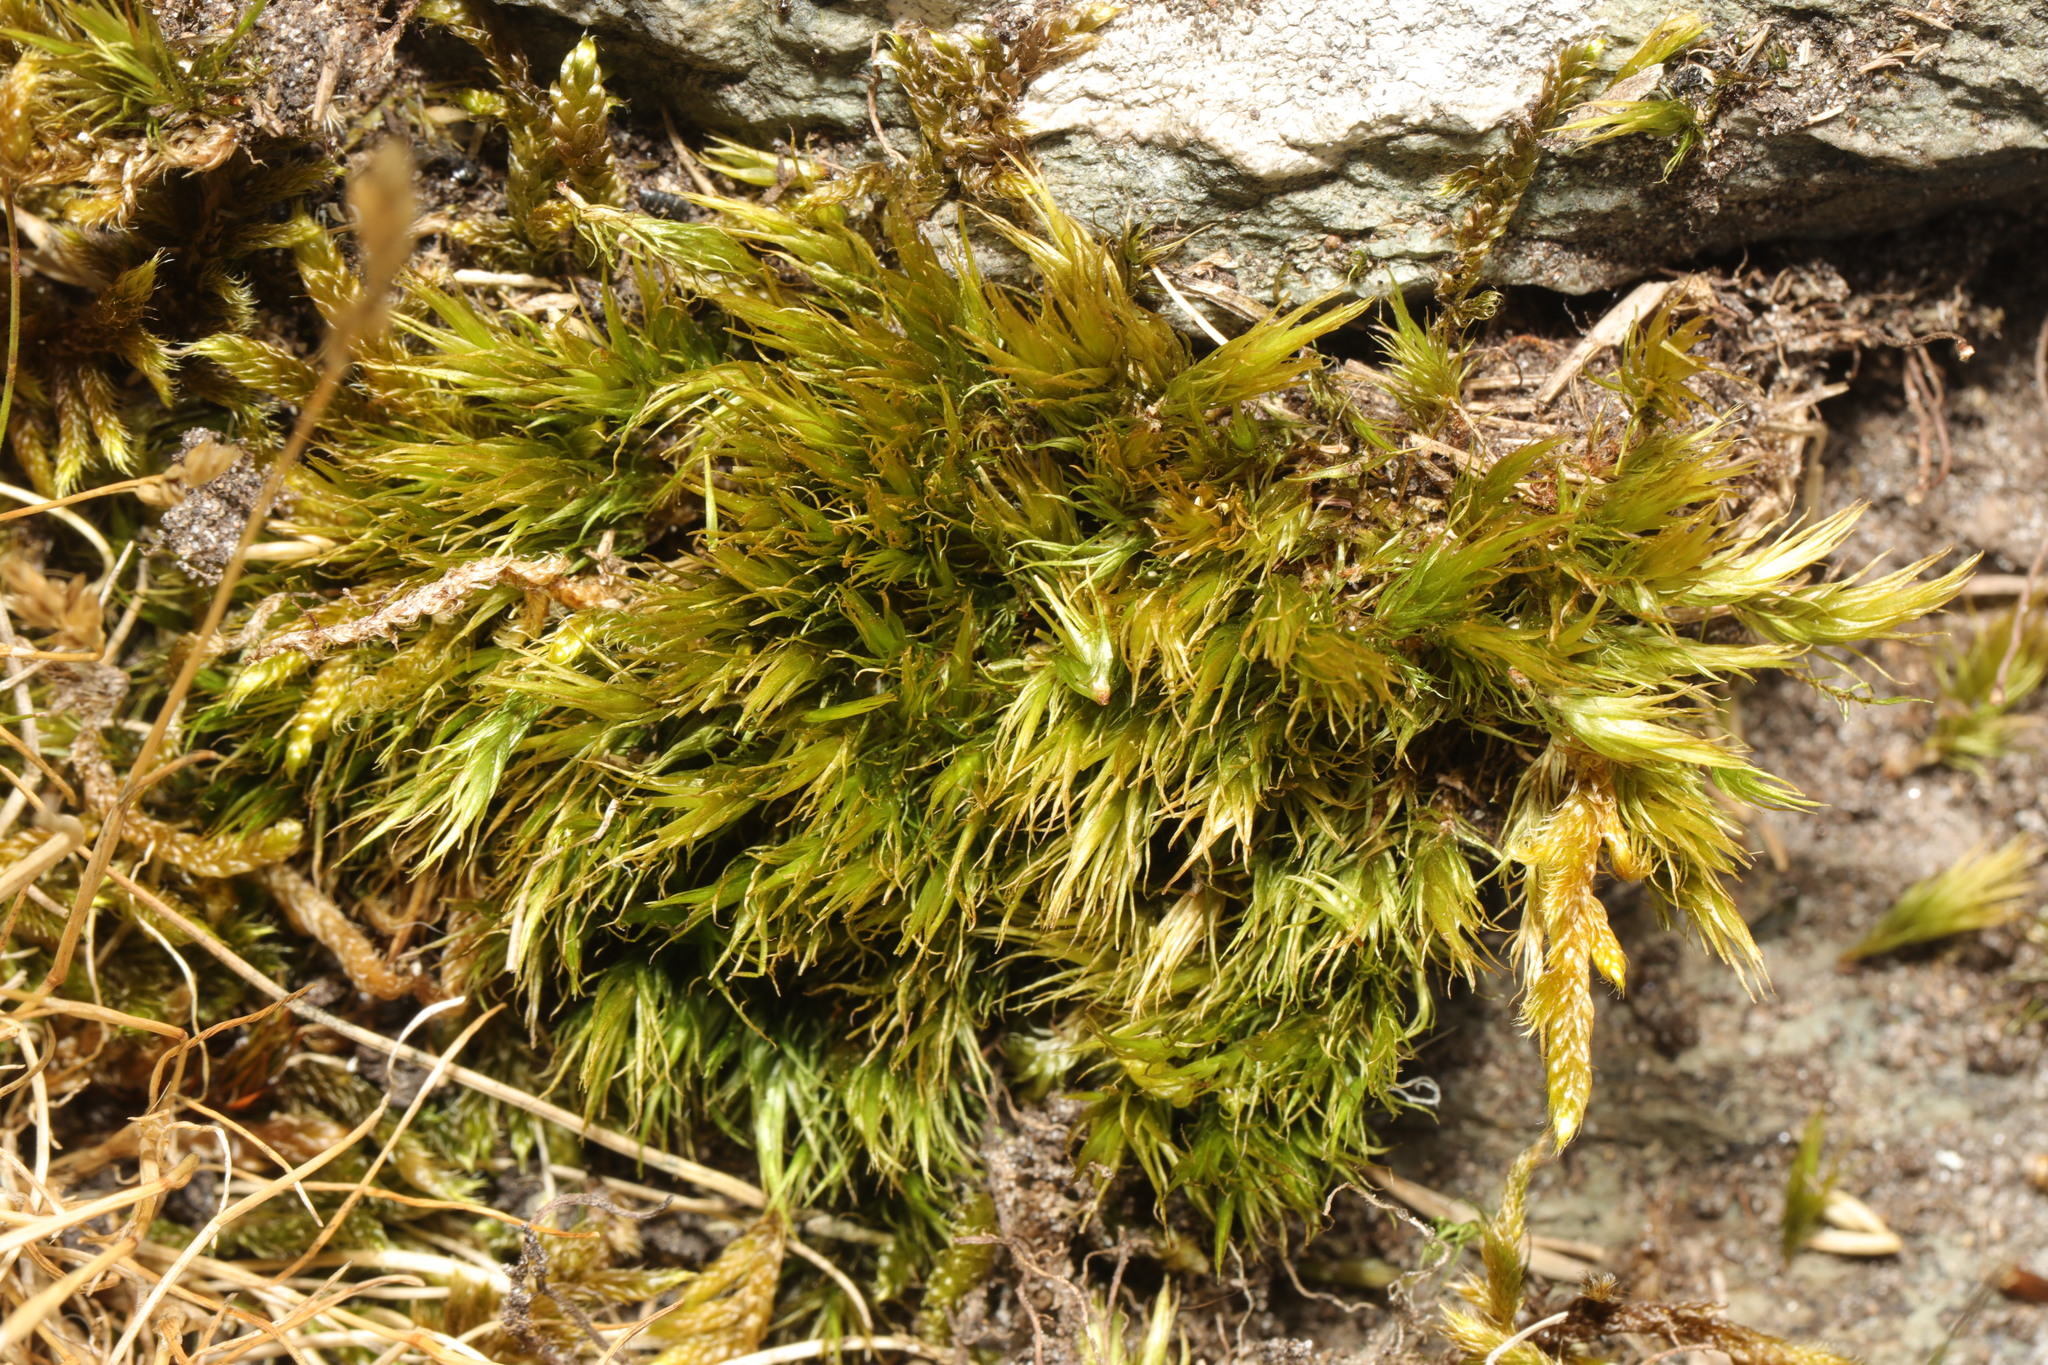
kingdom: Plantae
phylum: Bryophyta
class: Bryopsida
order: Dicranales
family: Dicranaceae
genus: Dicranum
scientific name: Dicranum scoparium
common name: Broom fork-moss
